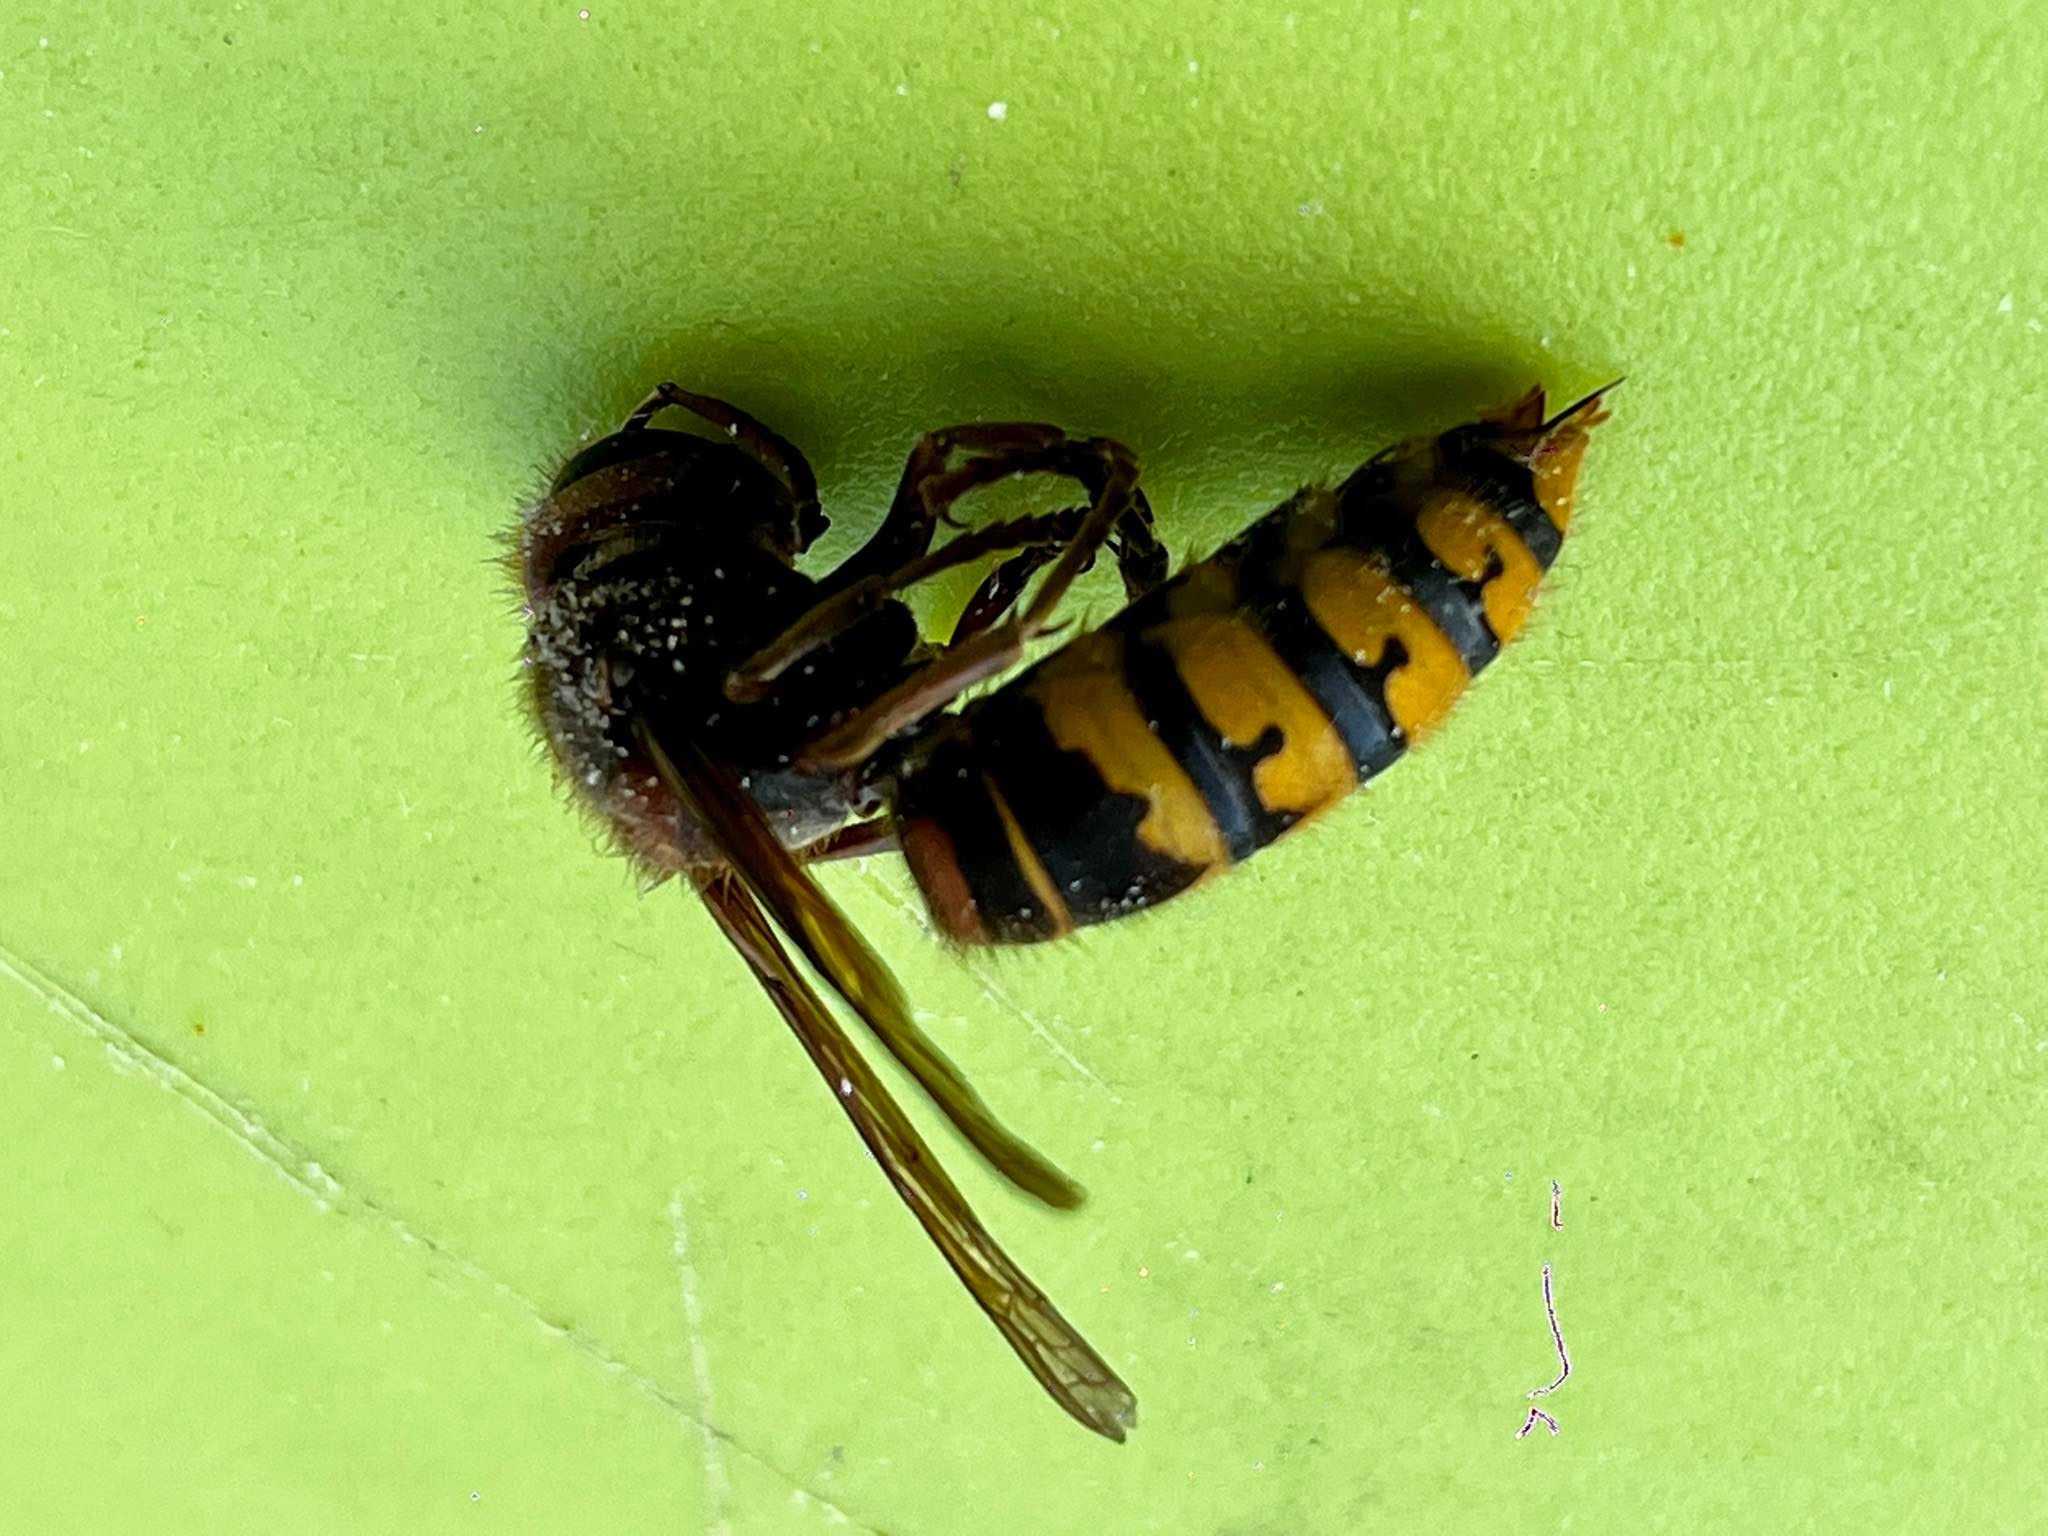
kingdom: Animalia
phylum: Arthropoda
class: Insecta
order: Hymenoptera
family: Vespidae
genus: Vespa
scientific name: Vespa crabro
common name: Hornet
